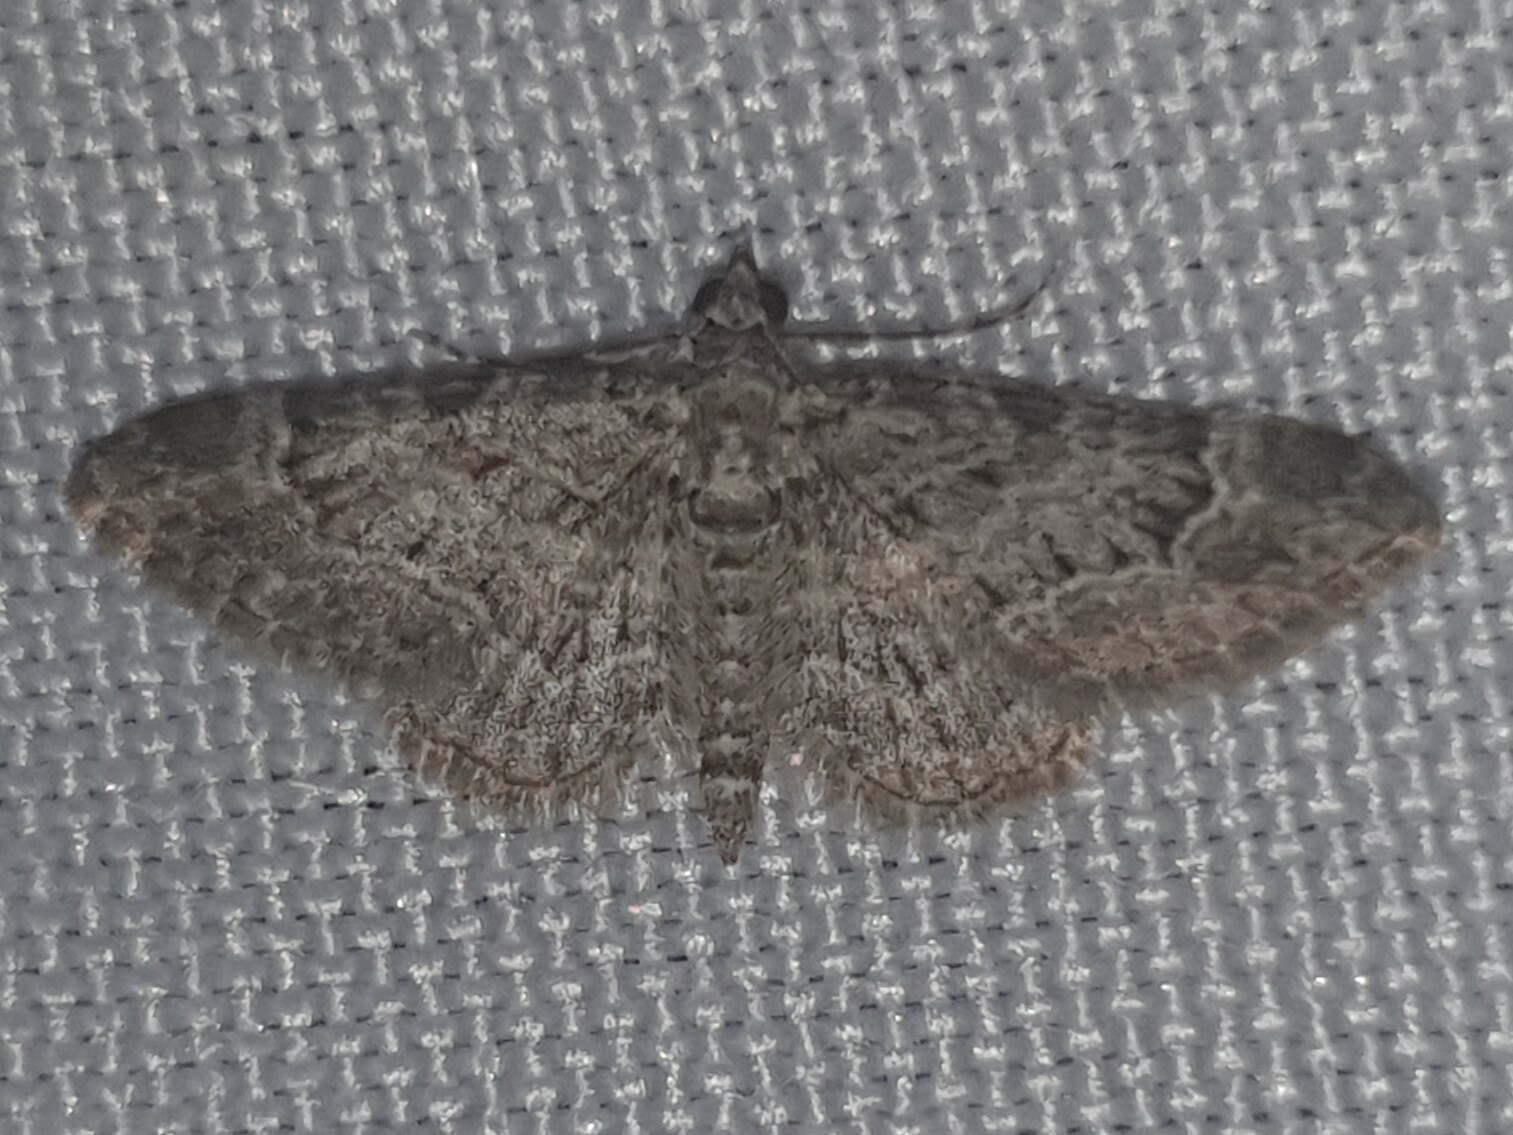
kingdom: Animalia
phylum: Arthropoda
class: Insecta
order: Lepidoptera
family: Geometridae
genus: Gymnoscelis
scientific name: Gymnoscelis rufifasciata
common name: Double-striped pug
